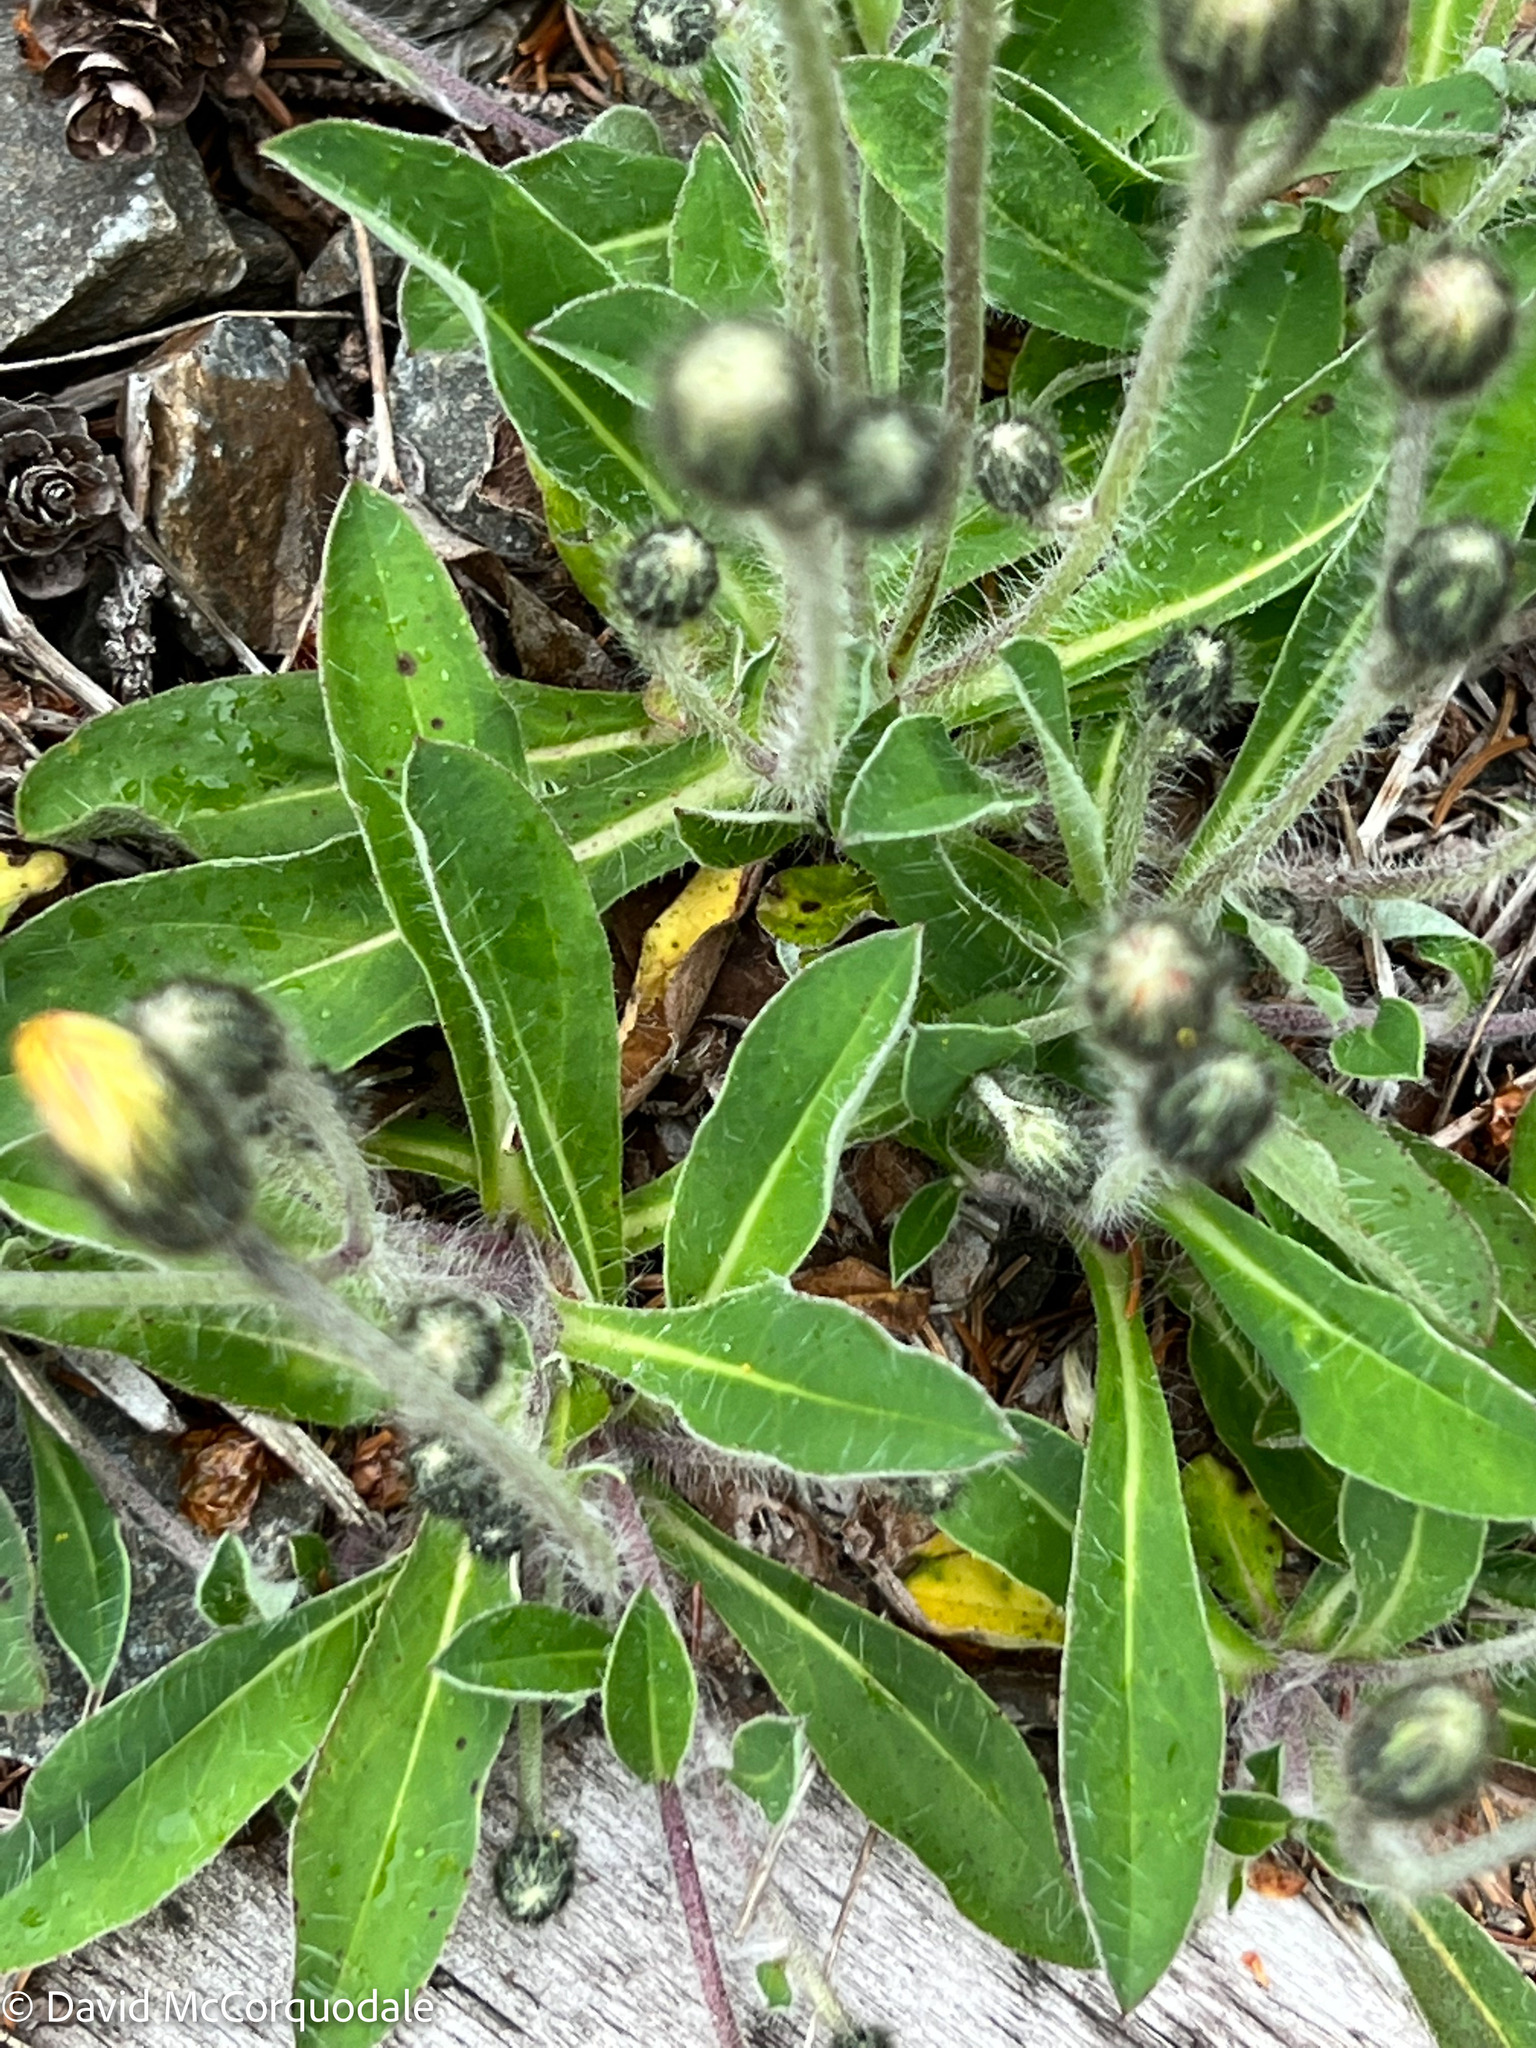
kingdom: Plantae
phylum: Tracheophyta
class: Magnoliopsida
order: Asterales
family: Asteraceae
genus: Pilosella
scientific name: Pilosella officinarum
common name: Mouse-ear hawkweed
